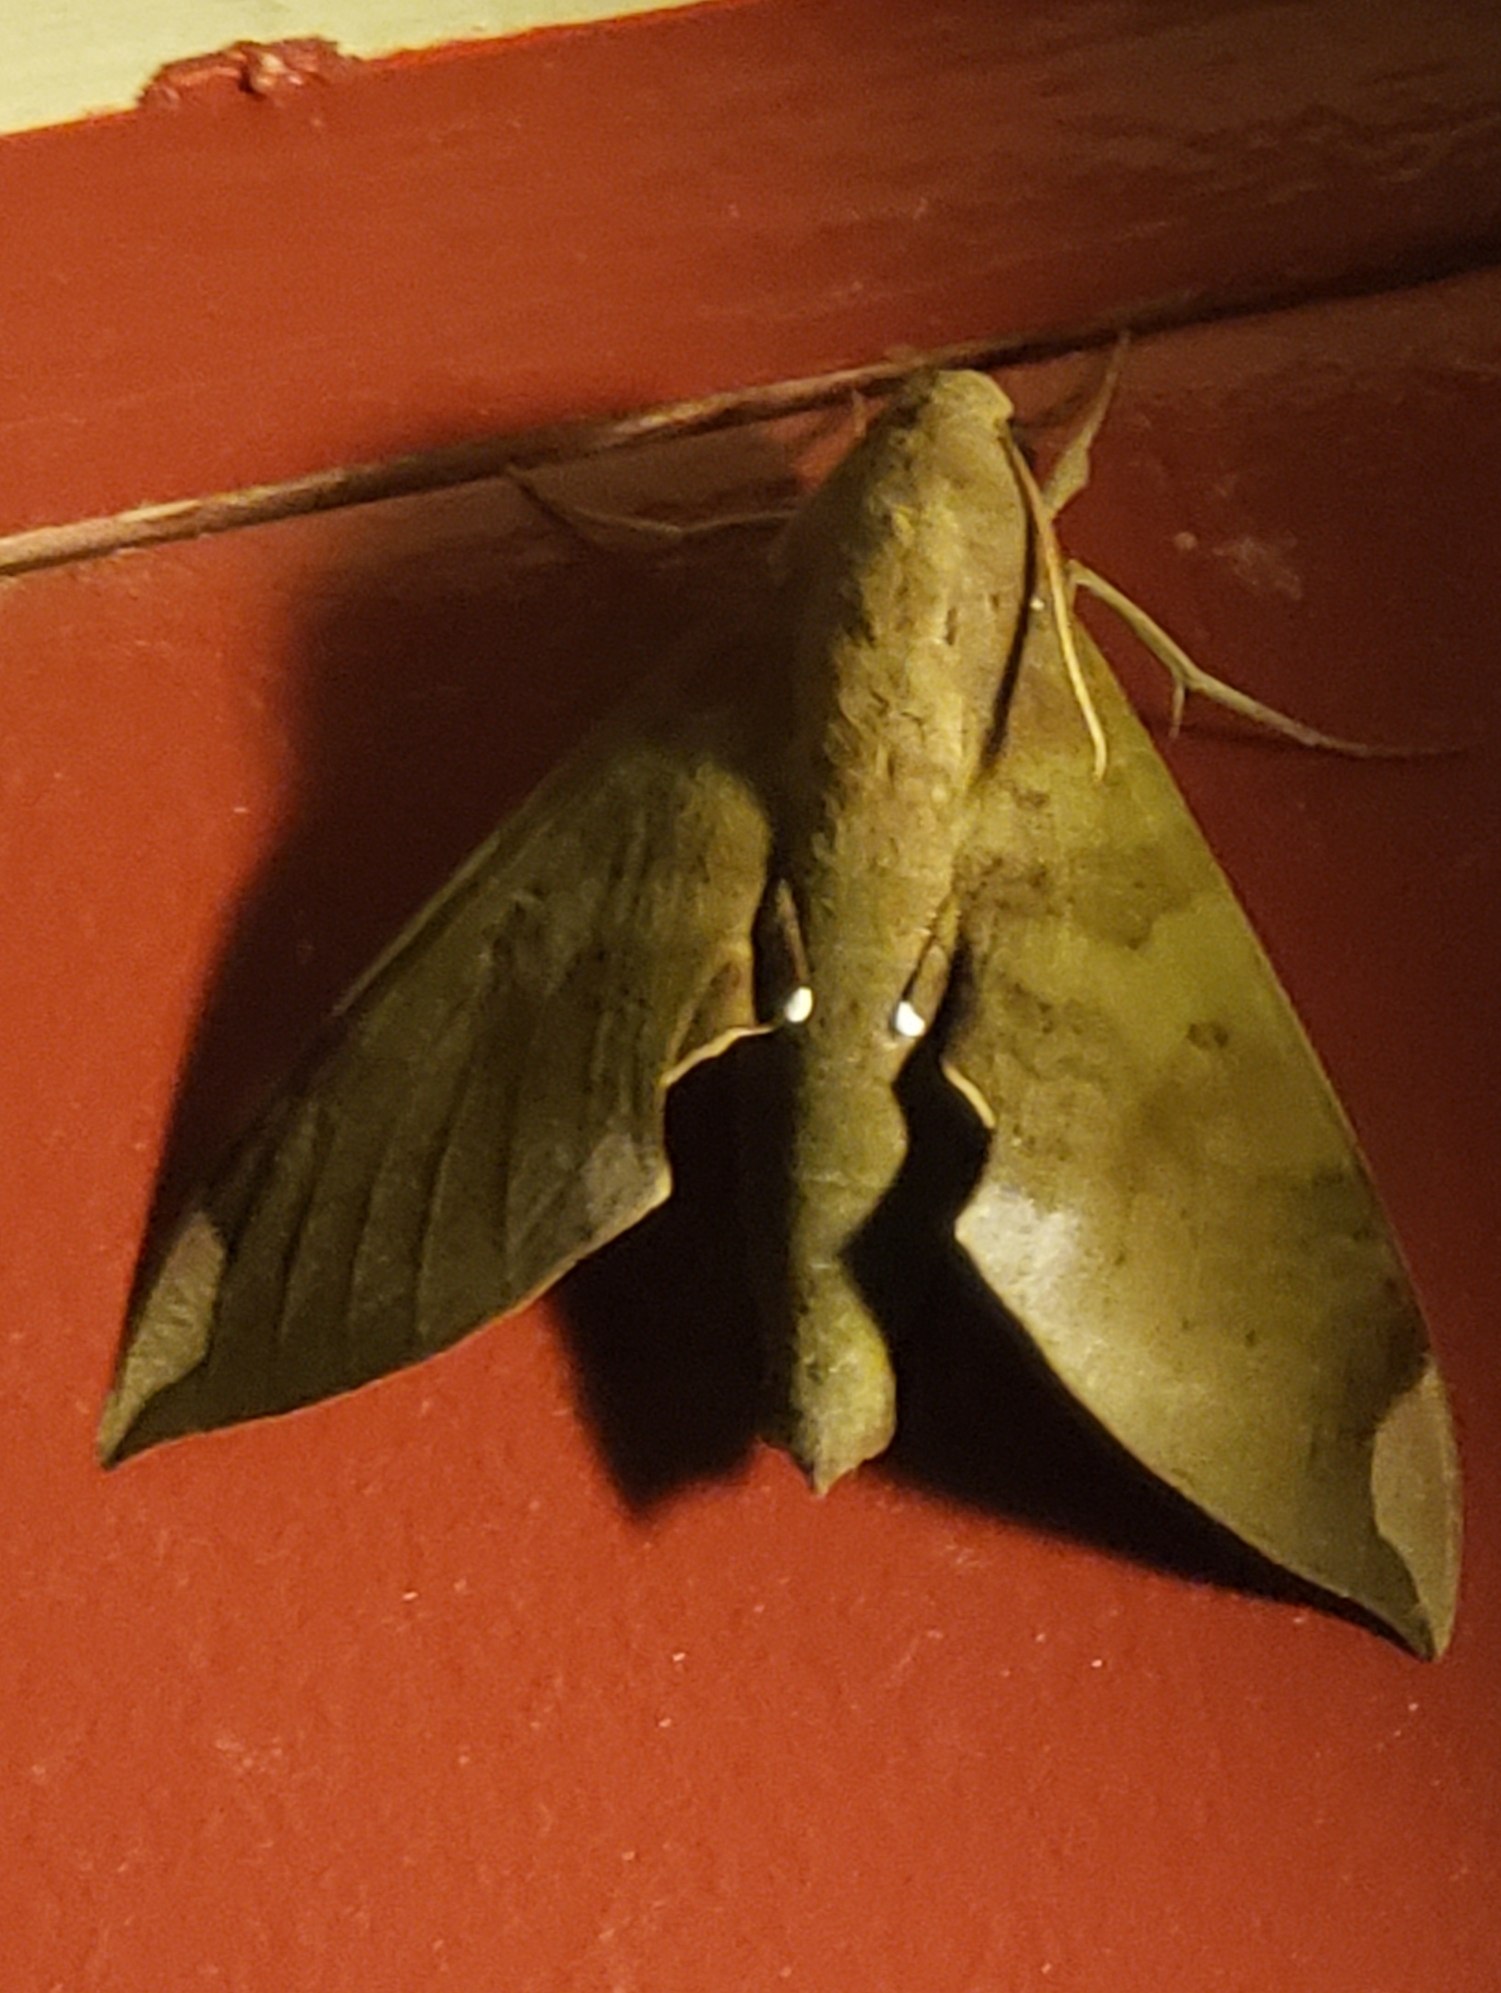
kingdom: Animalia
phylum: Arthropoda
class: Insecta
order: Lepidoptera
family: Sphingidae
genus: Pachylia
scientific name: Pachylia ficus
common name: Fig sphinx
